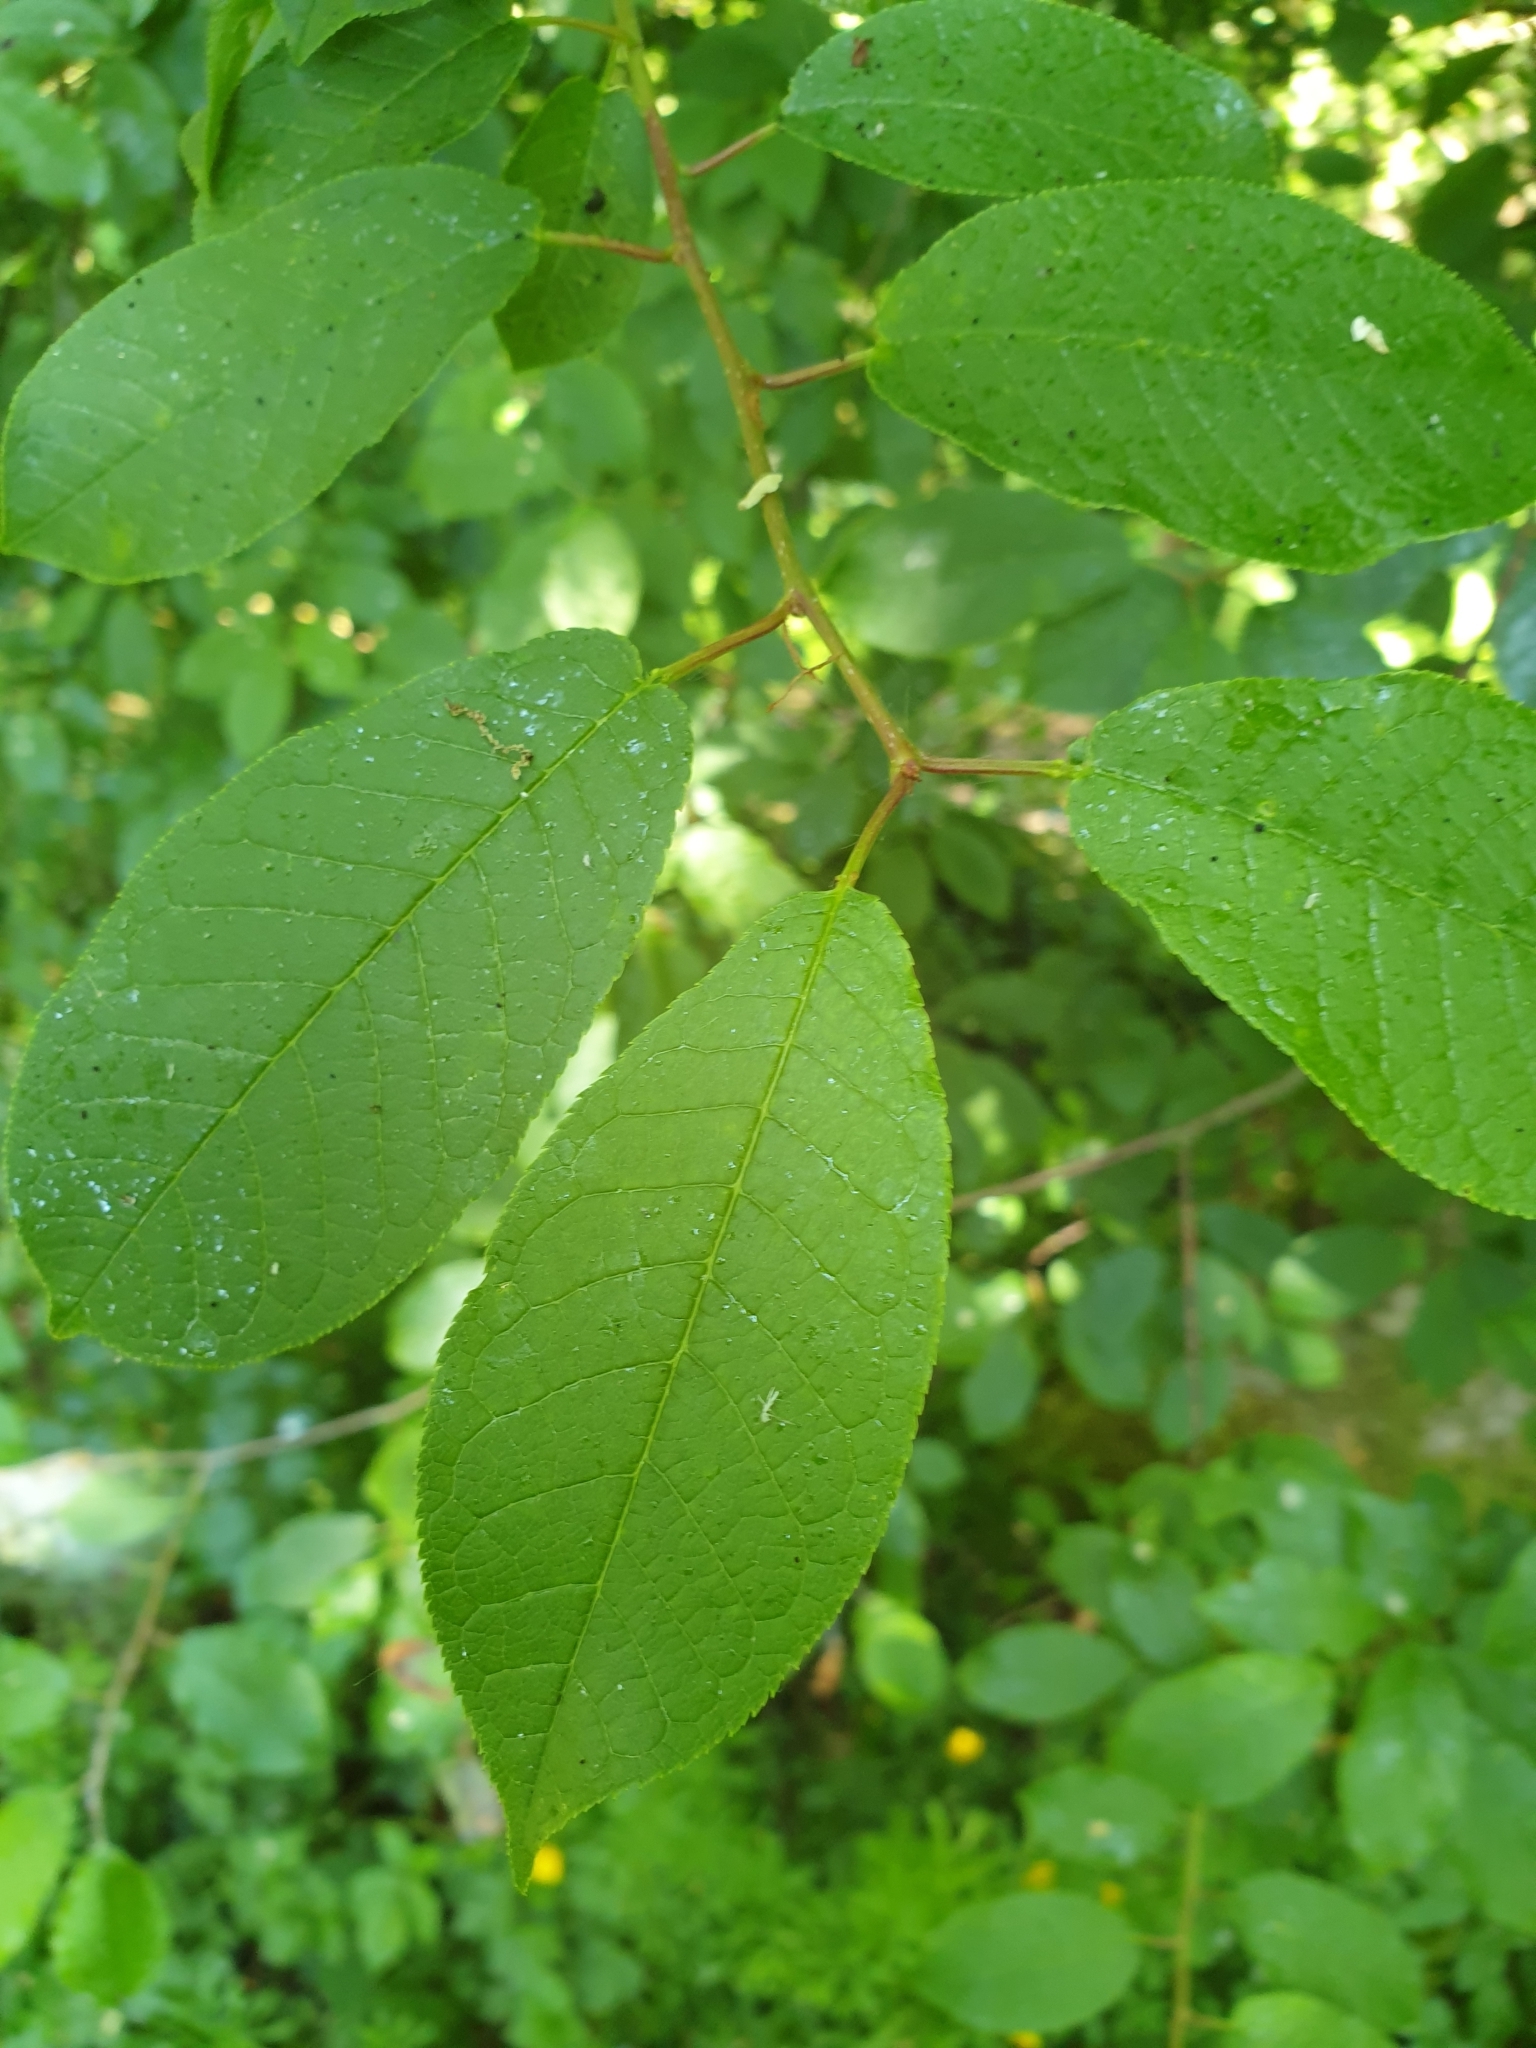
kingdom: Plantae
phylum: Tracheophyta
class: Magnoliopsida
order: Rosales
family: Rosaceae
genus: Prunus
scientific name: Prunus padus
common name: Bird cherry
